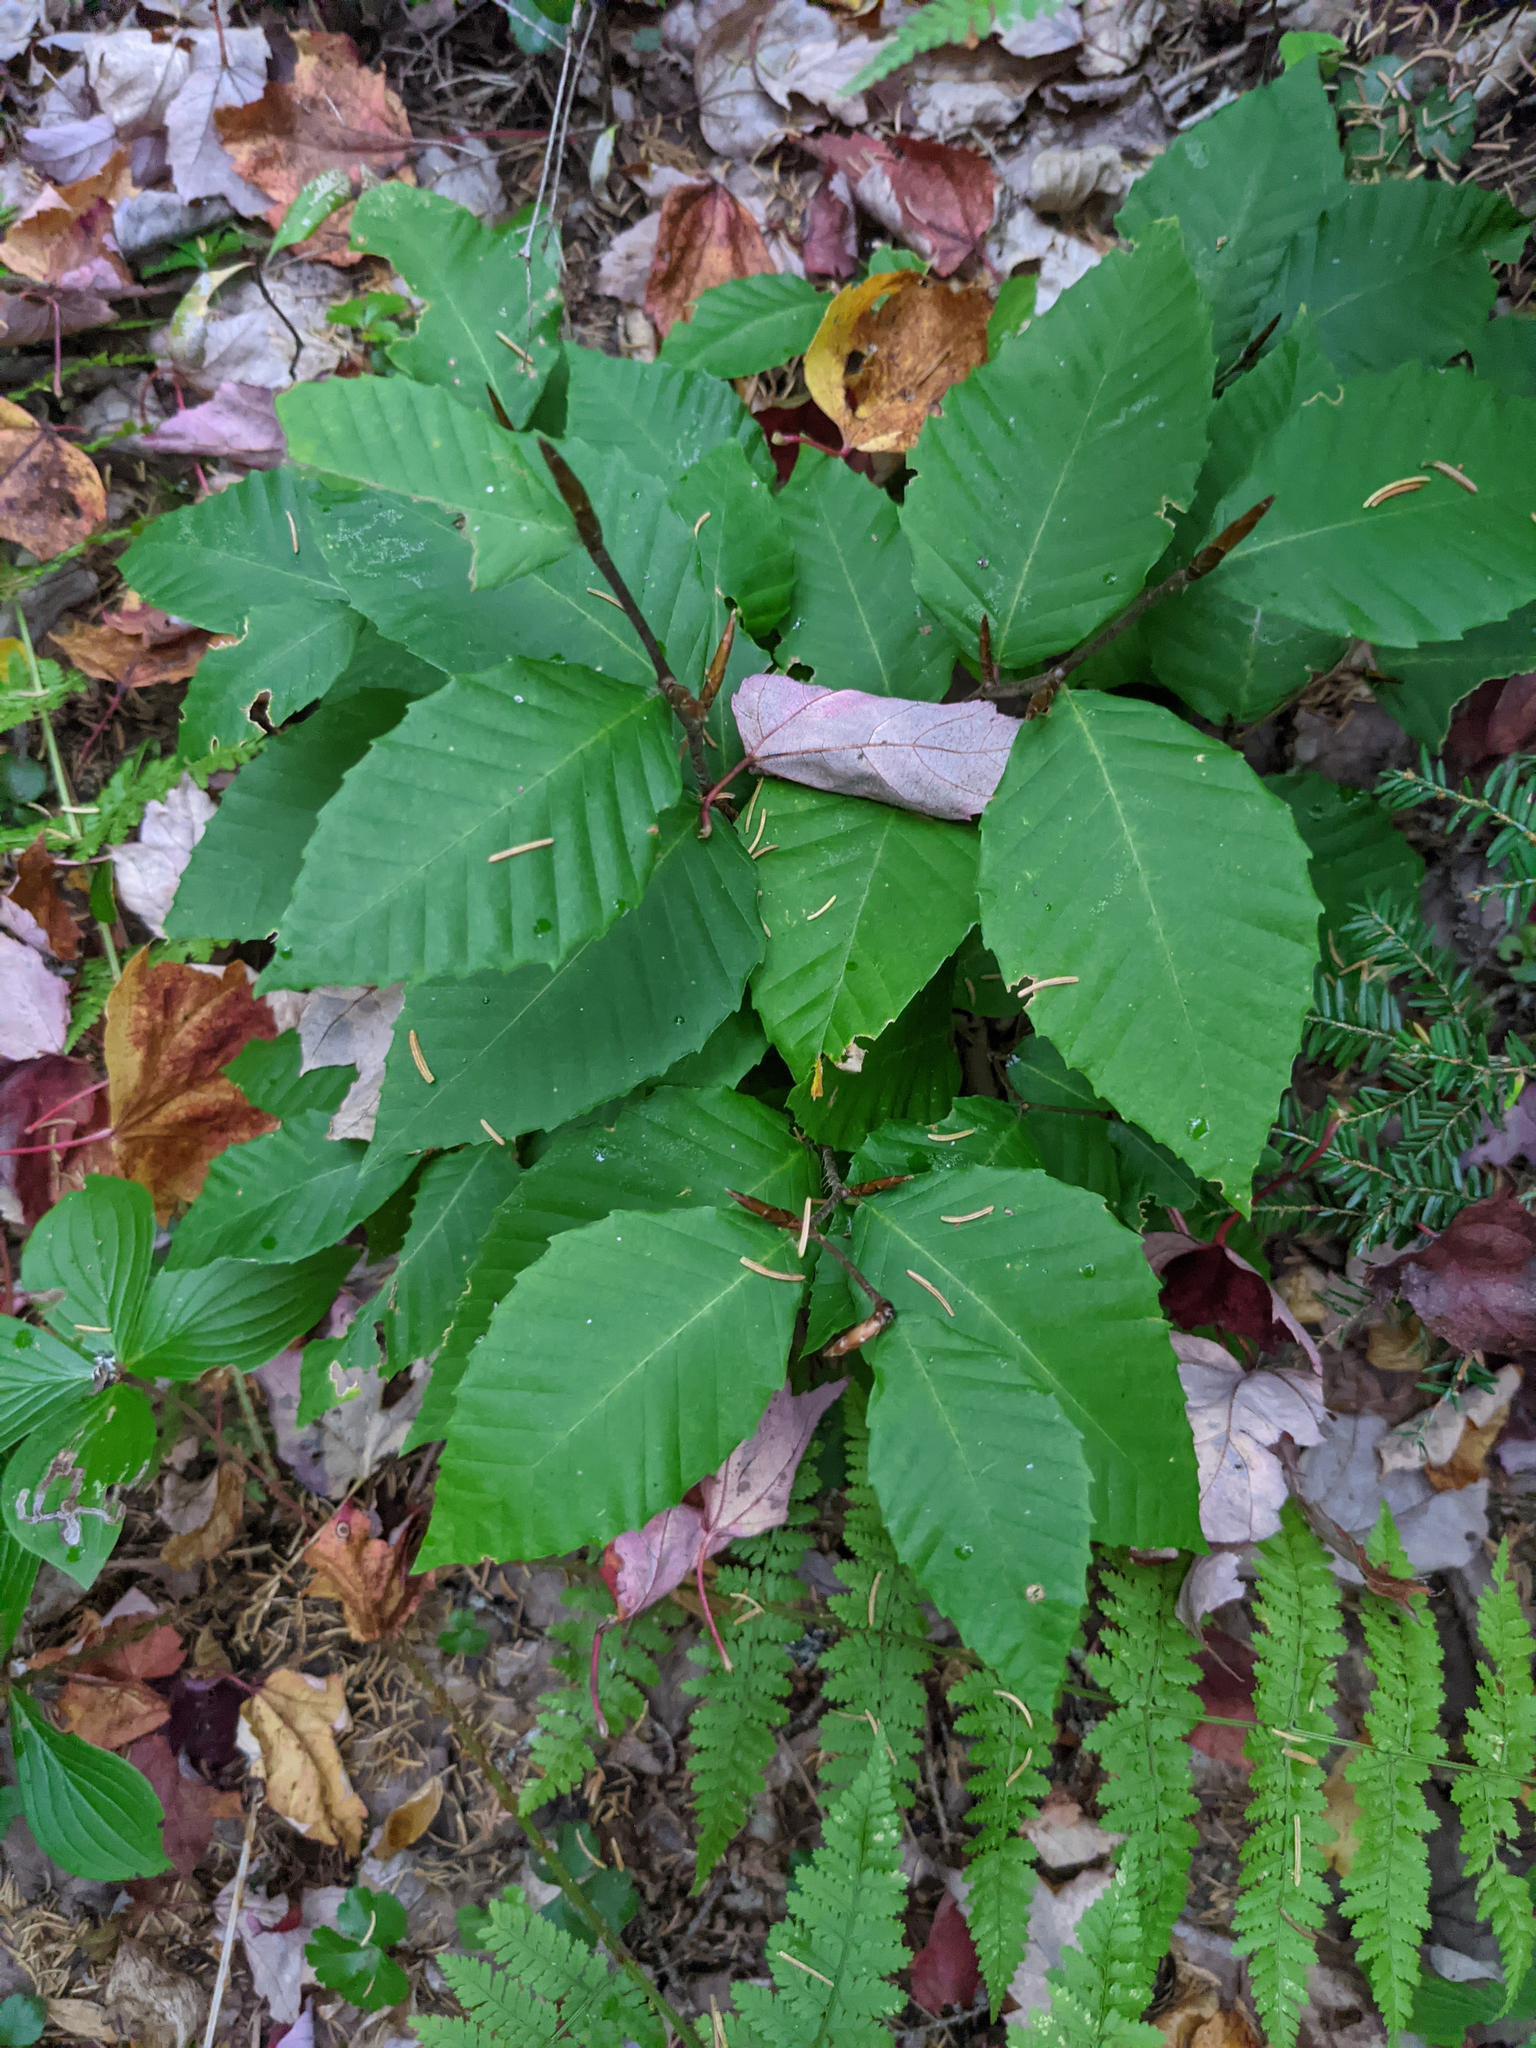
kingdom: Plantae
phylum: Tracheophyta
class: Magnoliopsida
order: Fagales
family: Fagaceae
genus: Fagus
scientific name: Fagus grandifolia
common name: American beech
